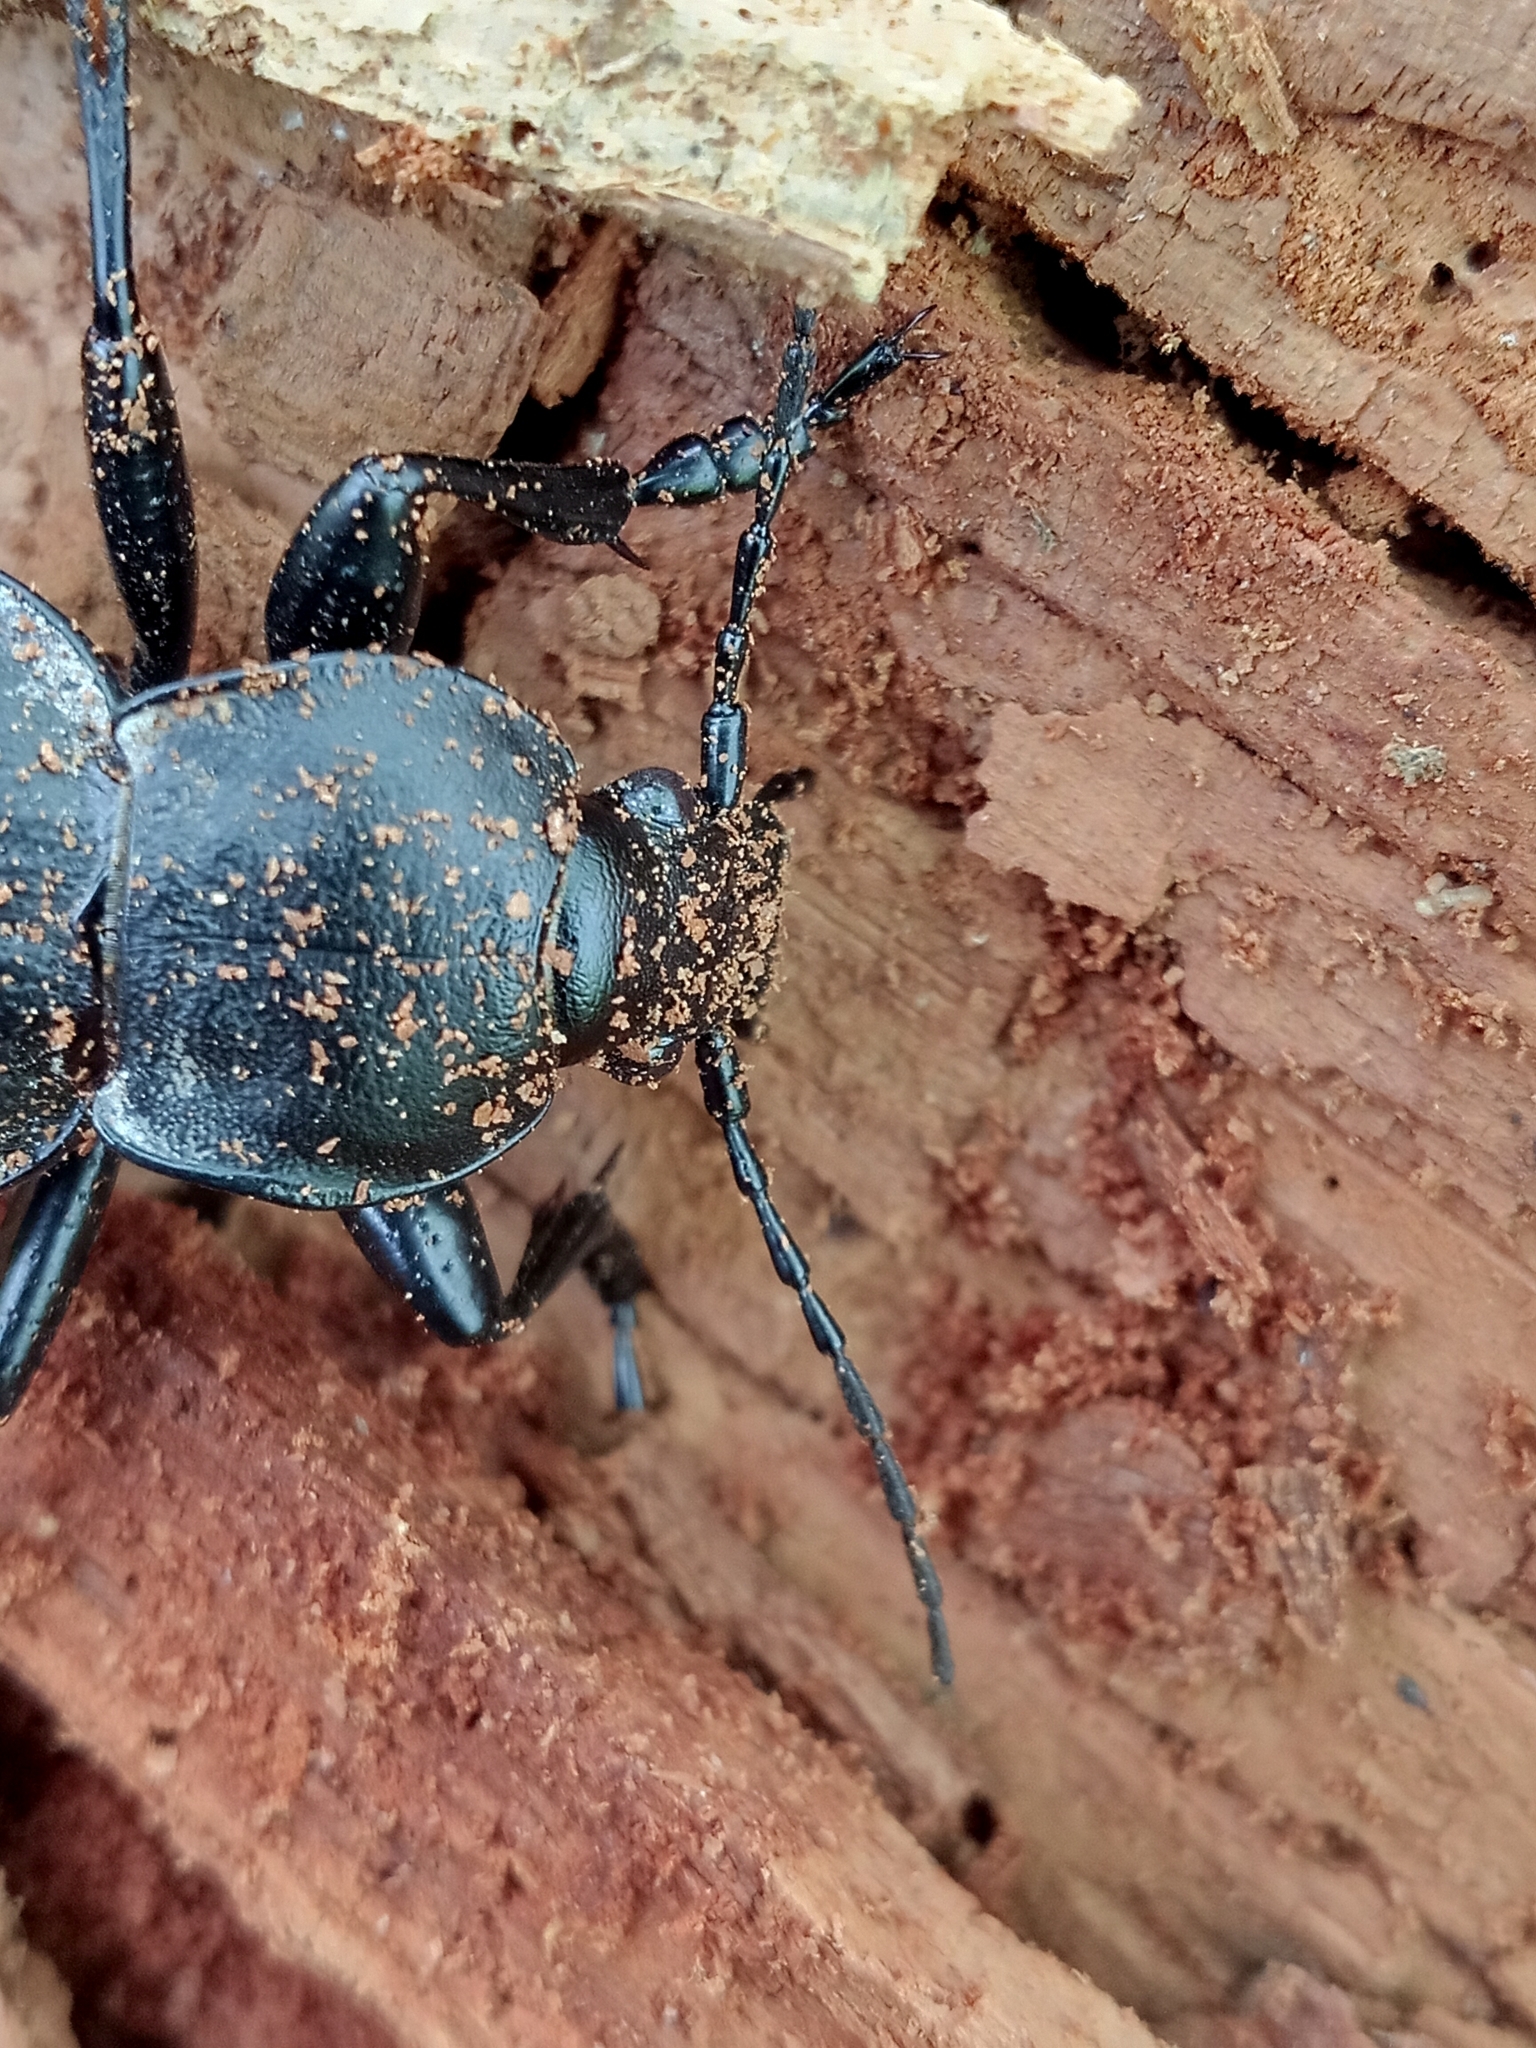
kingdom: Animalia
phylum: Arthropoda
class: Insecta
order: Coleoptera
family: Carabidae
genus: Carabus
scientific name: Carabus coriaceus
